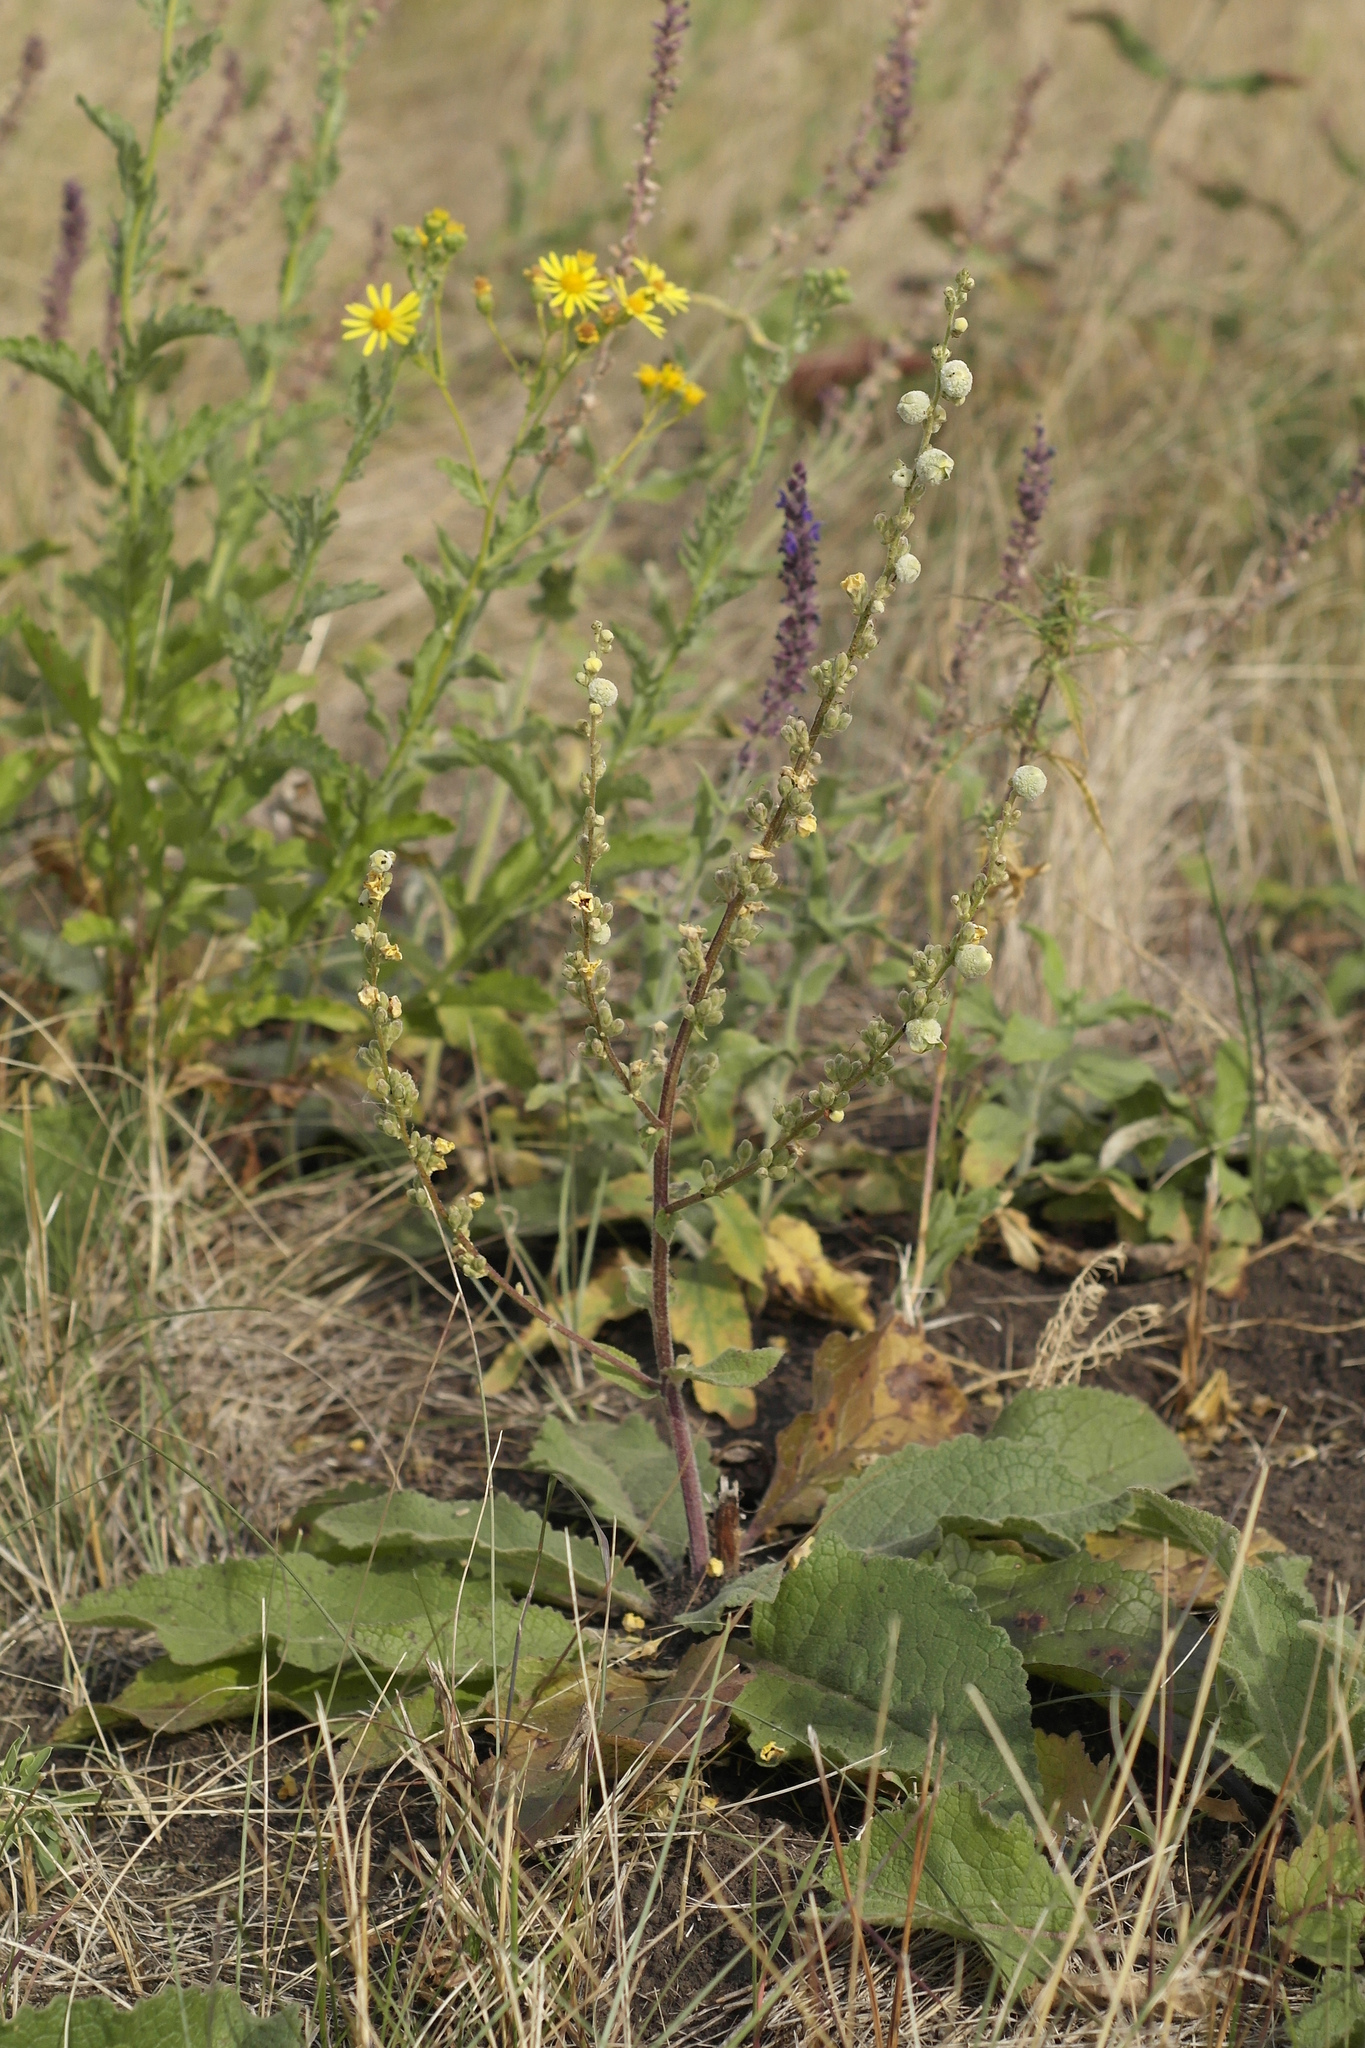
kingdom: Plantae
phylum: Tracheophyta
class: Magnoliopsida
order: Lamiales
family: Scrophulariaceae
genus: Verbascum
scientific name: Verbascum chaixii
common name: Nettle-leaved mullein
